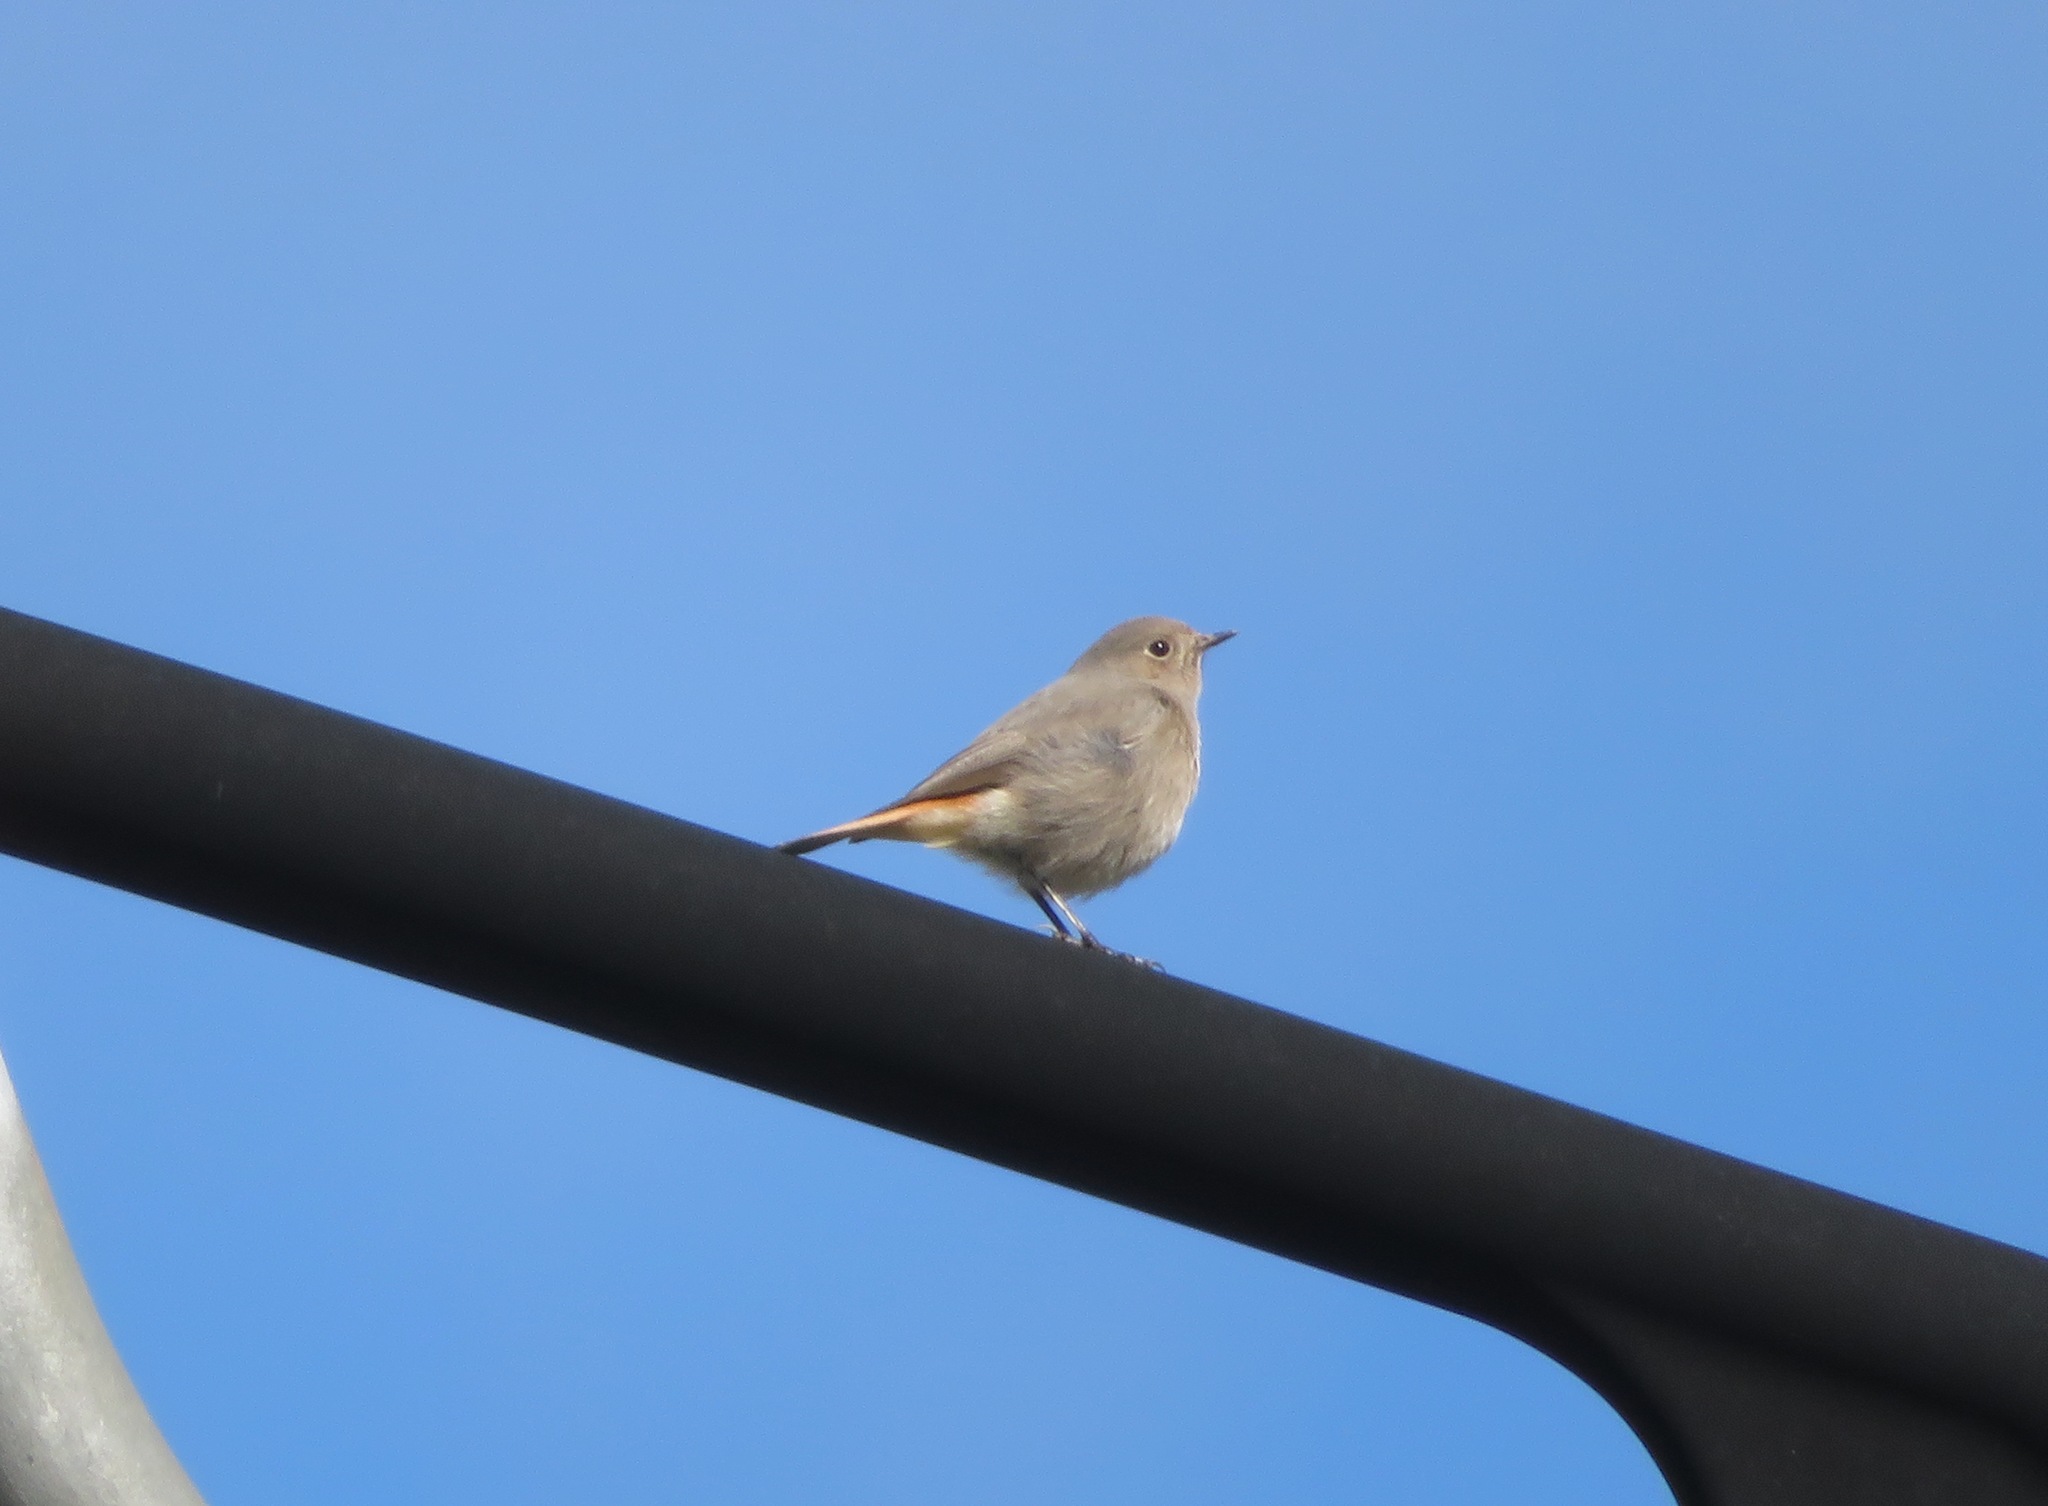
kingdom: Animalia
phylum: Chordata
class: Aves
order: Passeriformes
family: Muscicapidae
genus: Phoenicurus
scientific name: Phoenicurus ochruros
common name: Black redstart
